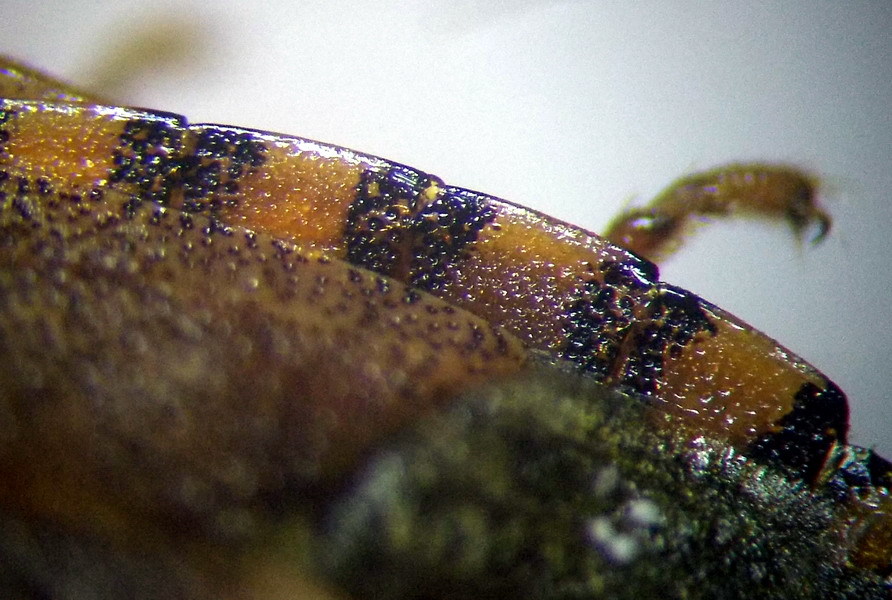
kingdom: Animalia
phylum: Arthropoda
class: Insecta
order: Hemiptera
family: Pentatomidae
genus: Holcostethus
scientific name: Holcostethus strictus
